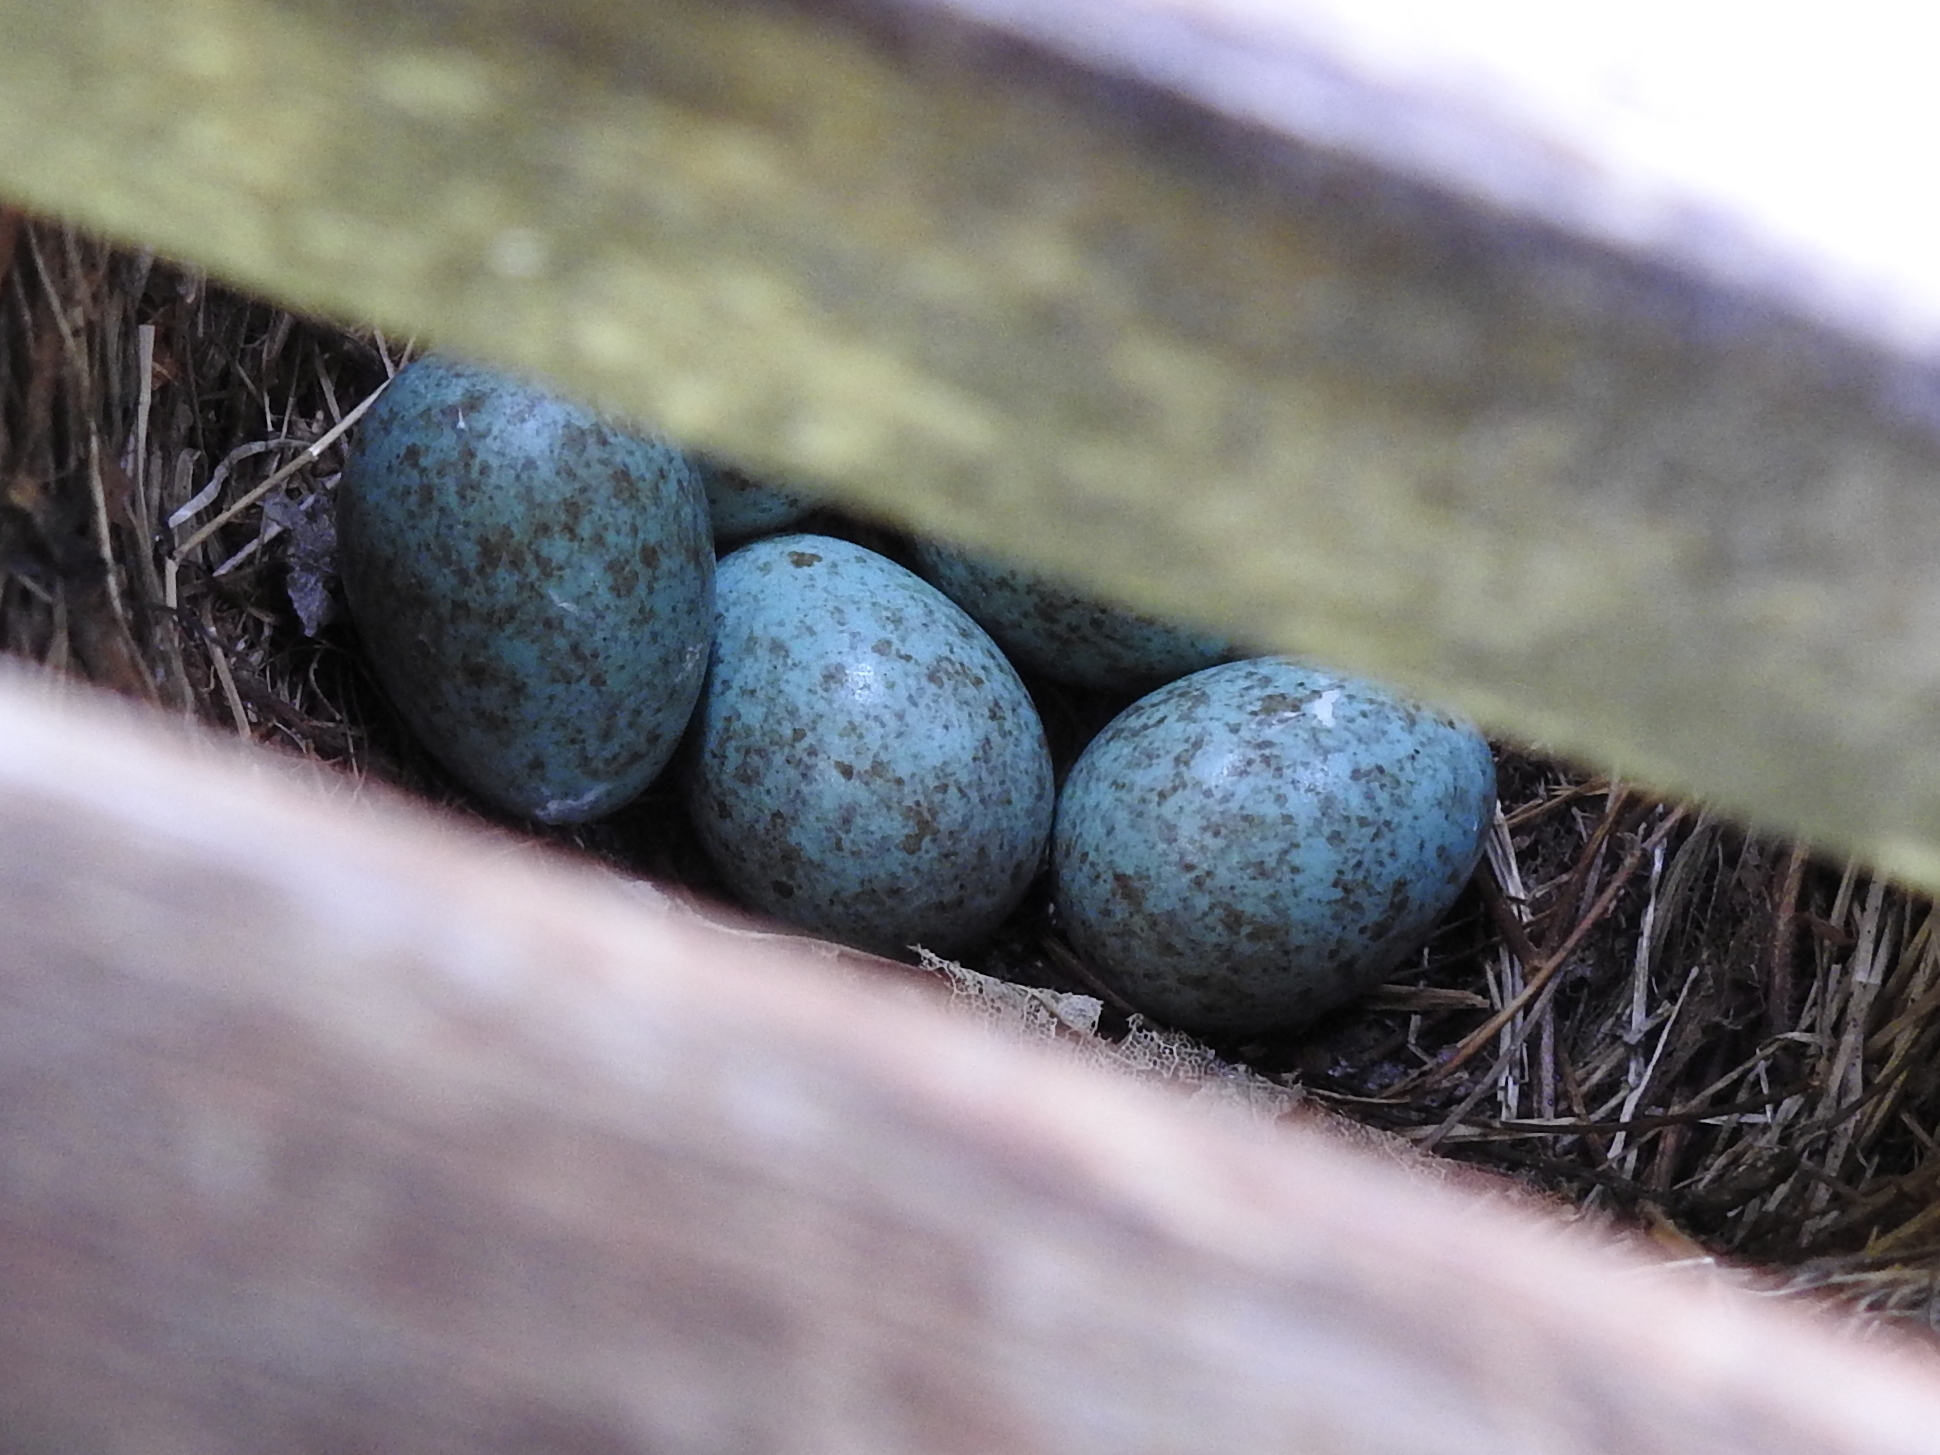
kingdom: Animalia
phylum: Chordata
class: Aves
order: Passeriformes
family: Turdidae
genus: Turdus
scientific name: Turdus merula
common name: Common blackbird
